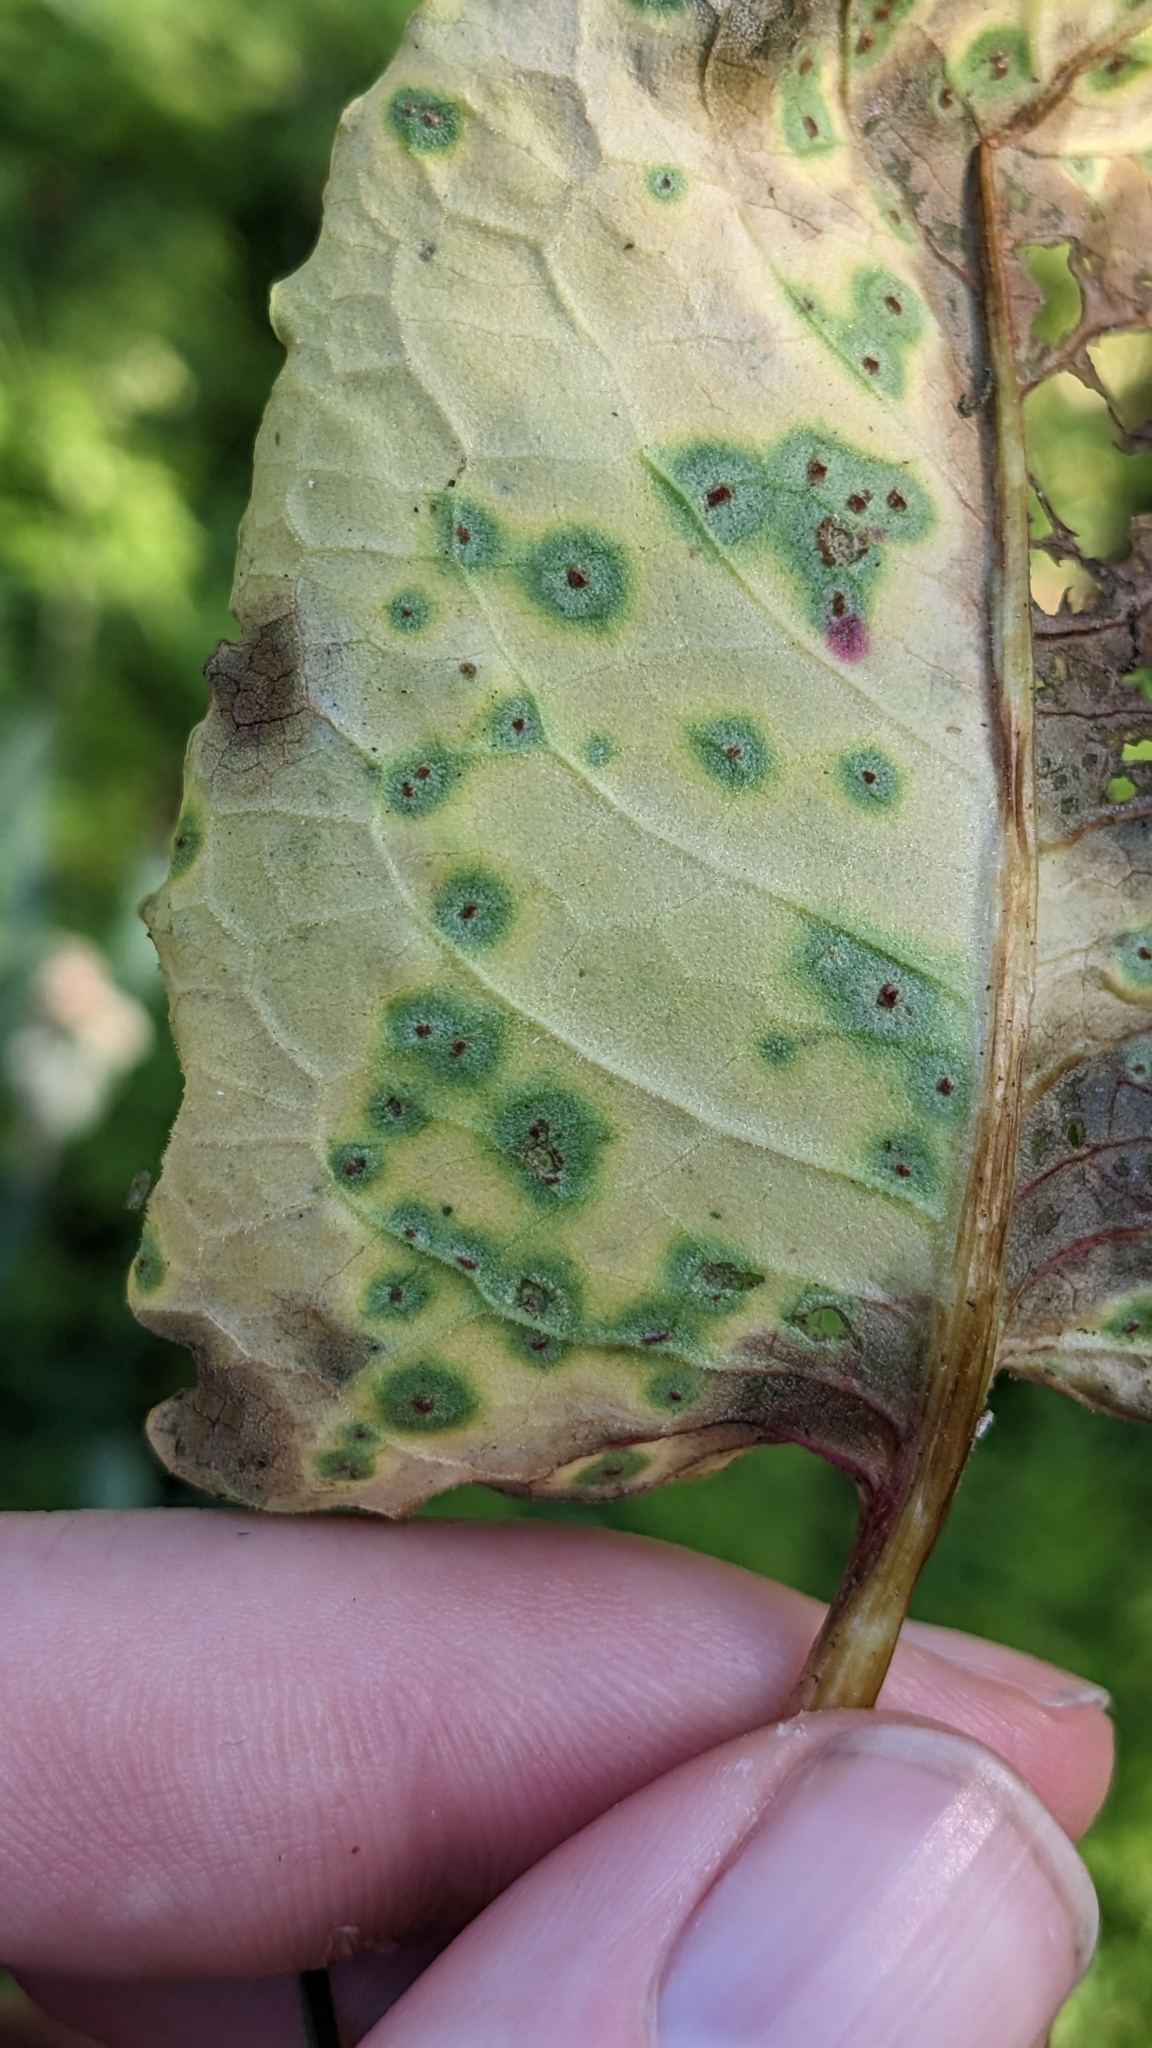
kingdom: Fungi
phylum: Basidiomycota
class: Pucciniomycetes
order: Pucciniales
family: Pucciniaceae
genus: Uromyces
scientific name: Uromyces rumicis
